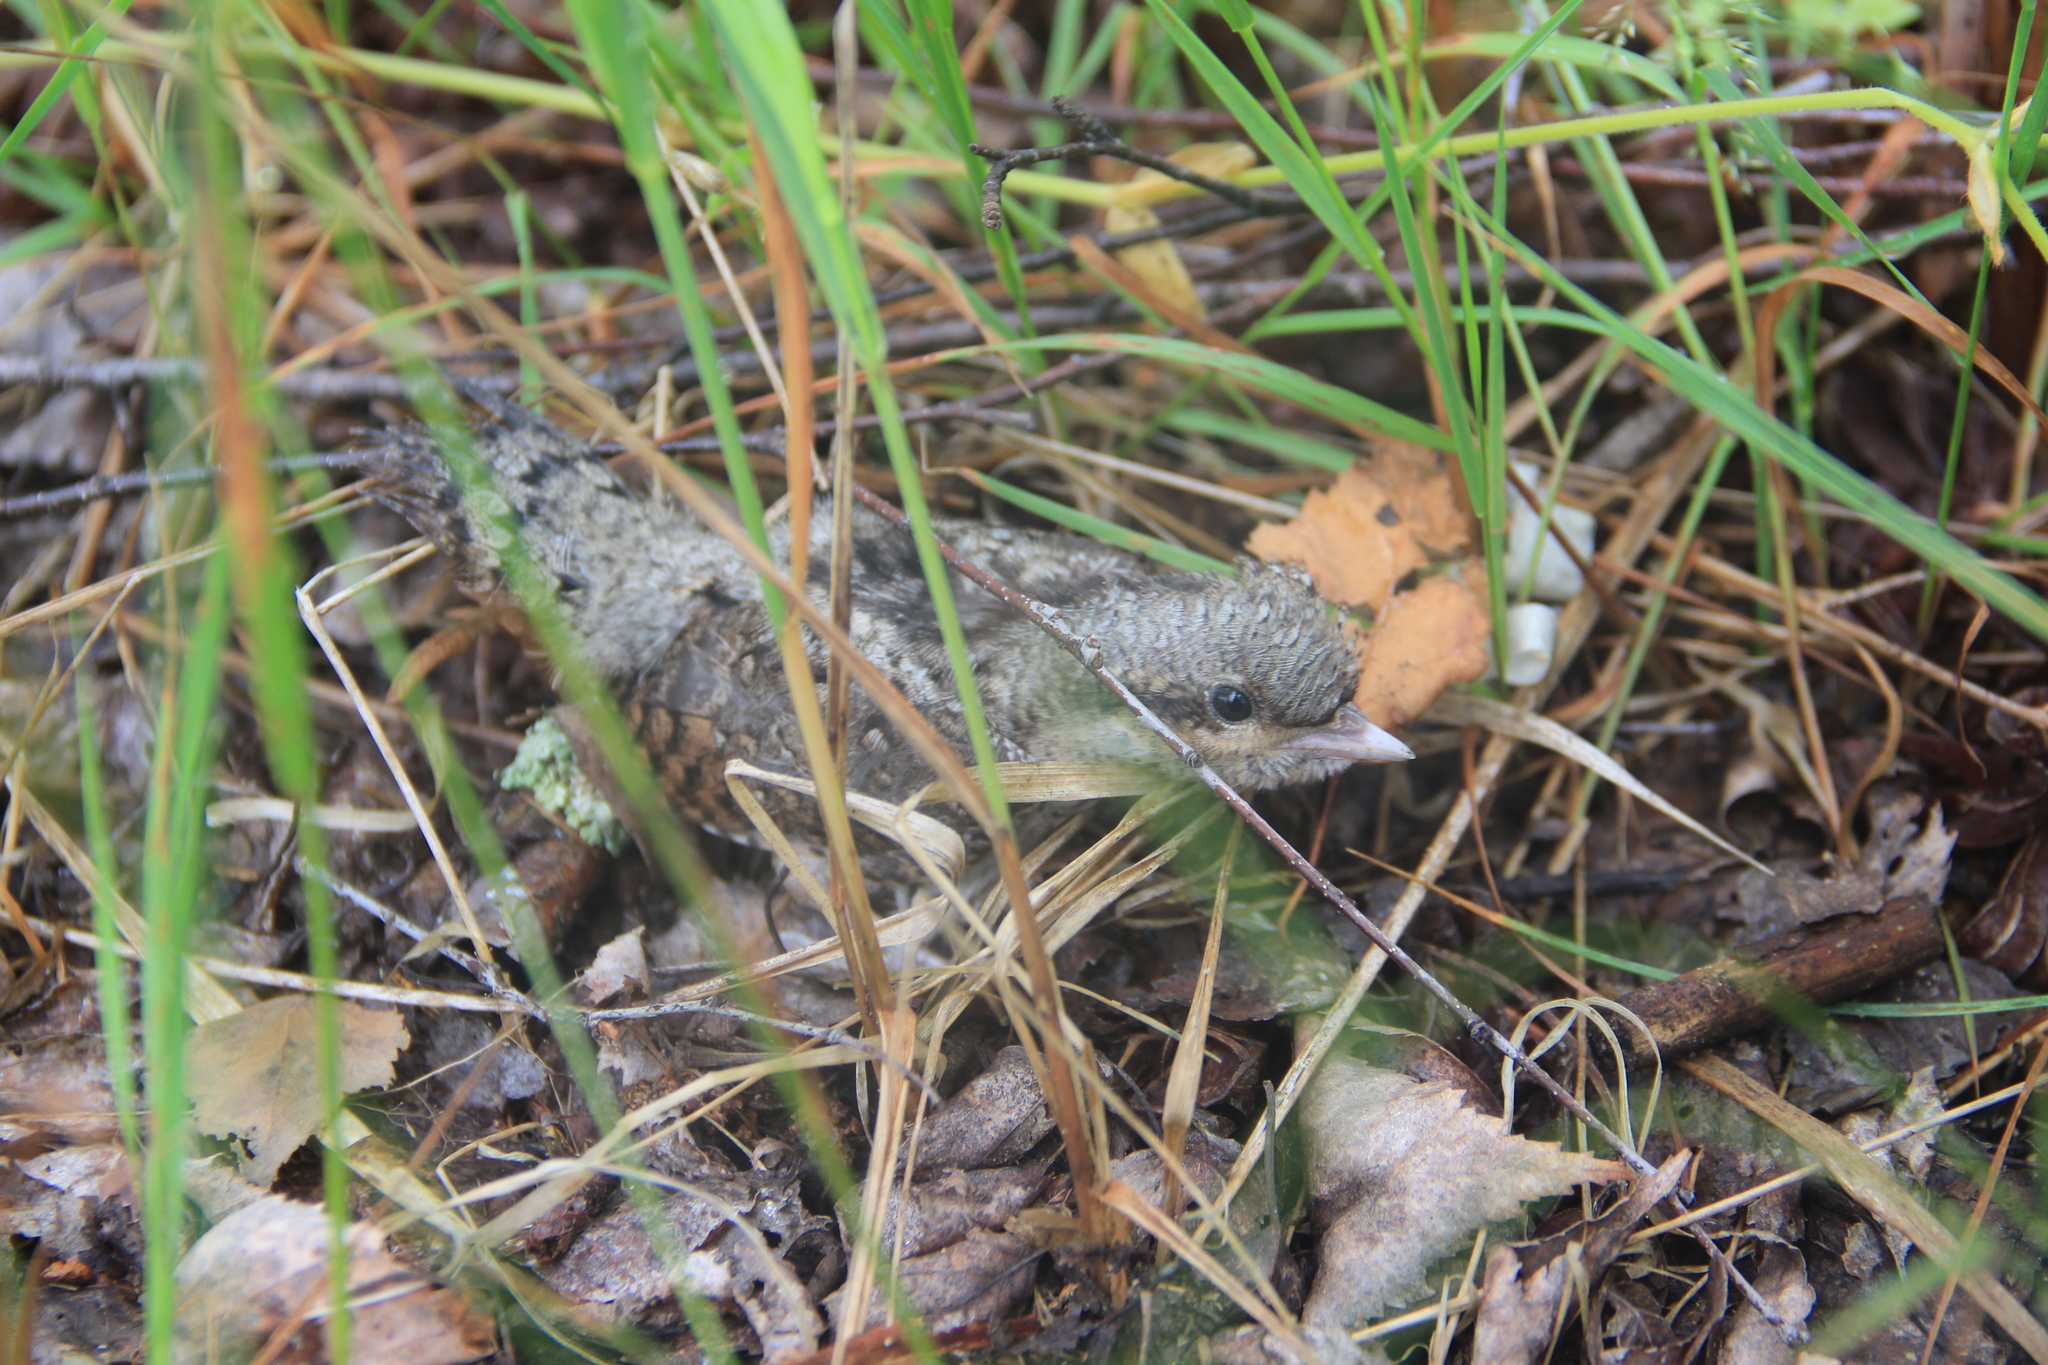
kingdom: Animalia
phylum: Chordata
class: Aves
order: Piciformes
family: Picidae
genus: Jynx
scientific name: Jynx torquilla
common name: Eurasian wryneck
